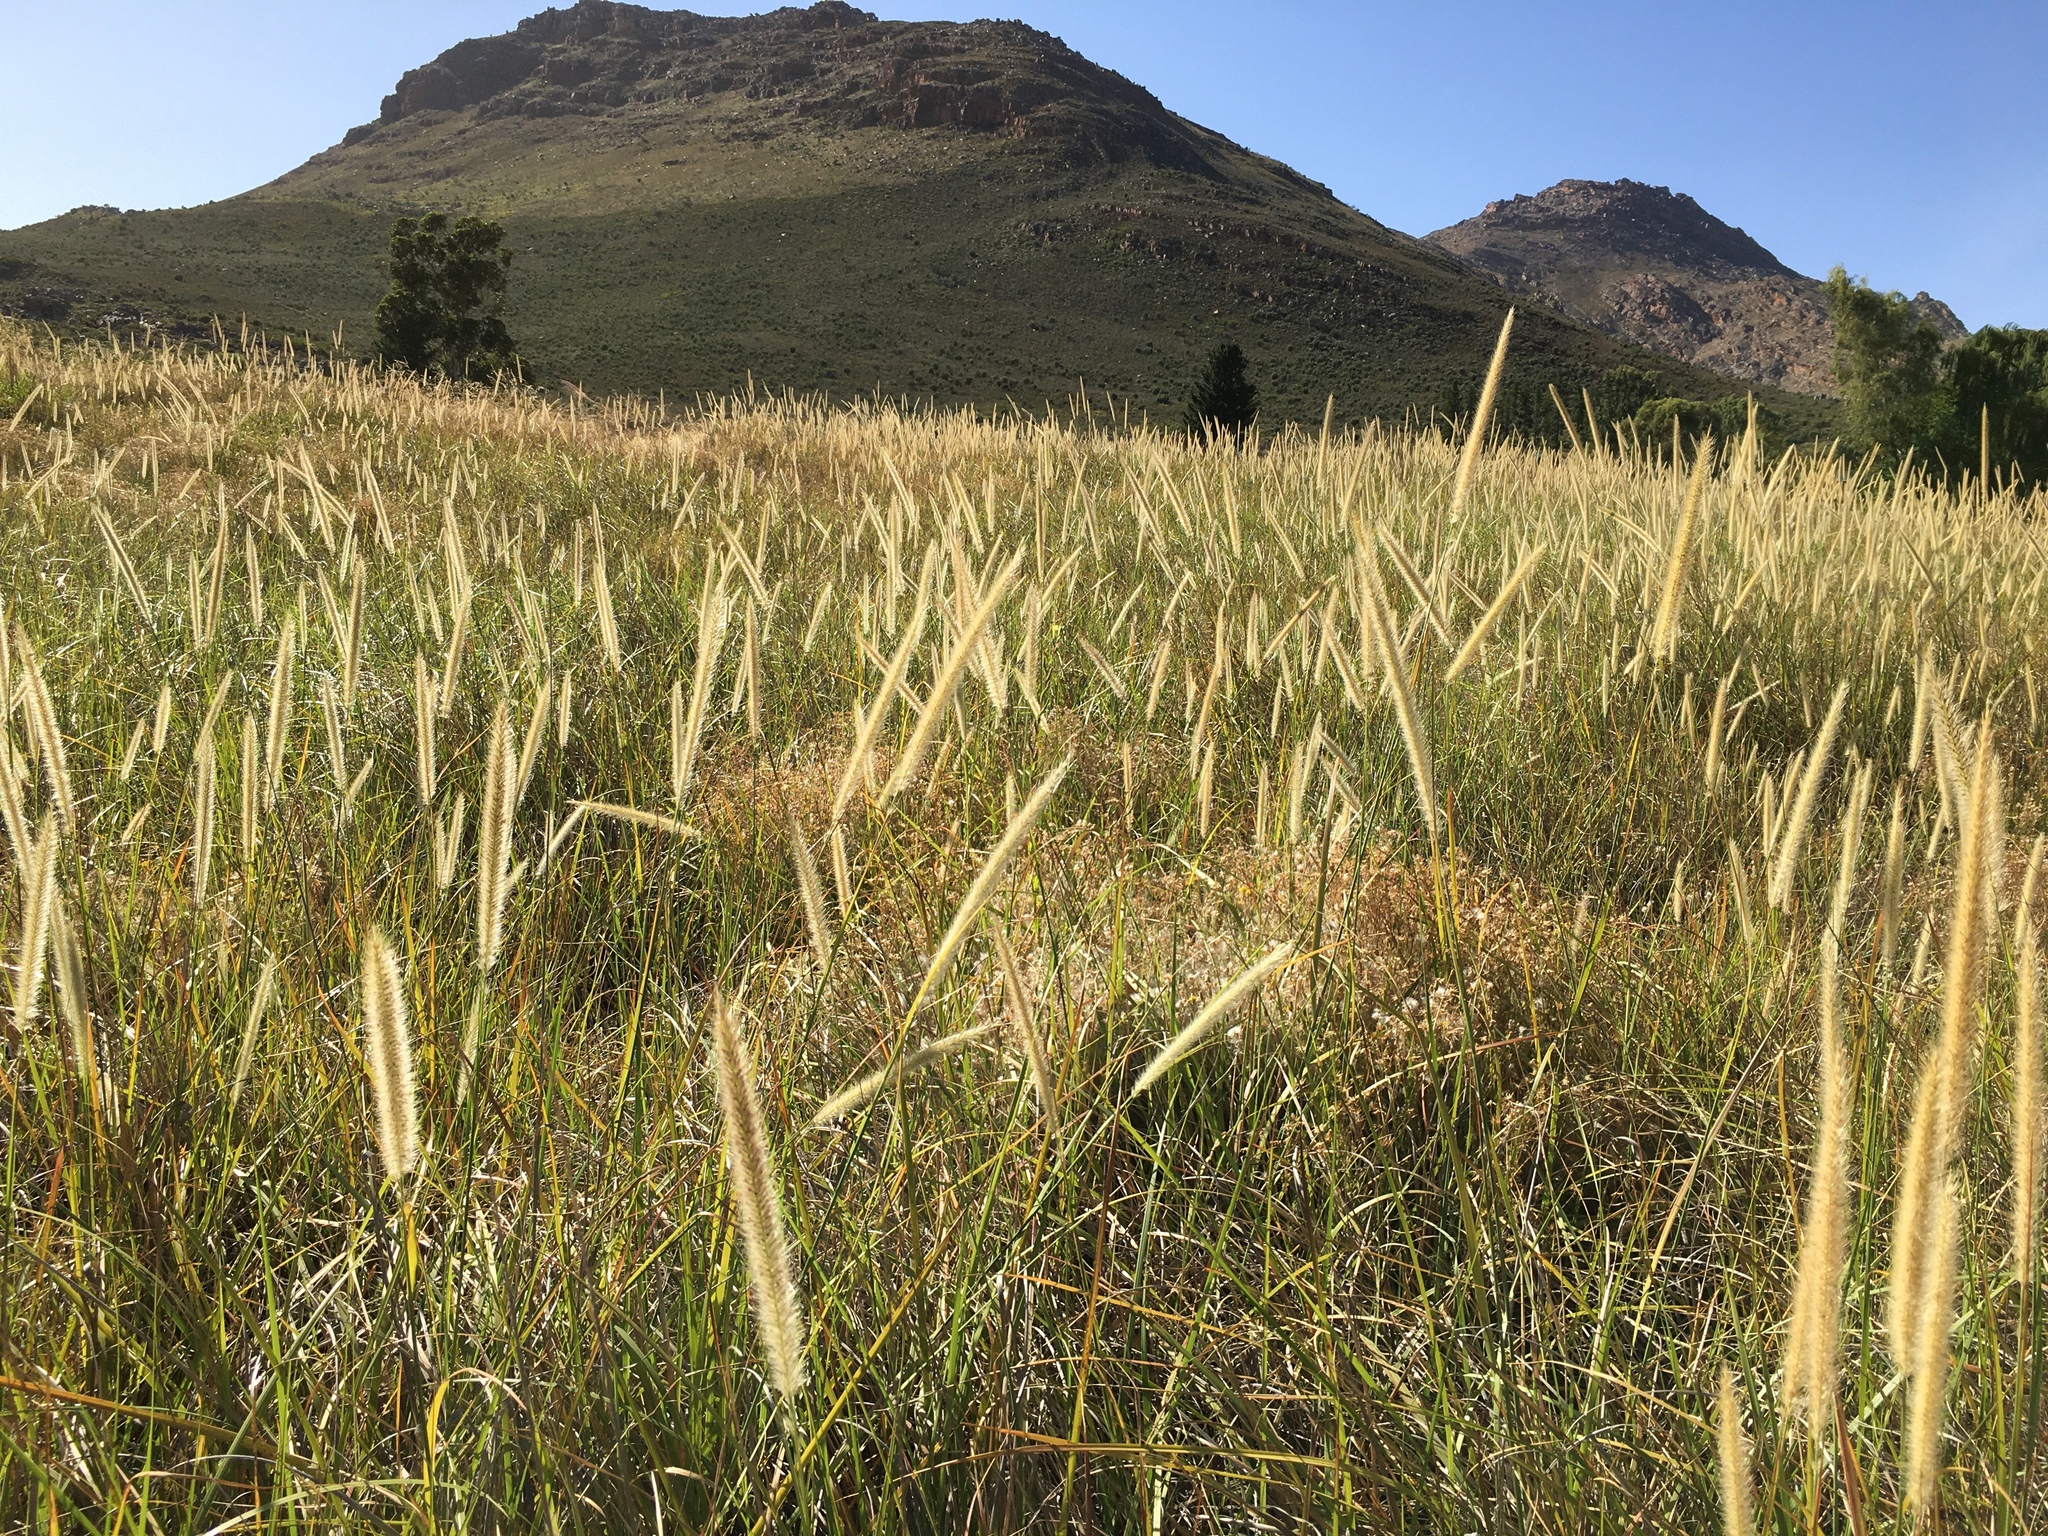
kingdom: Plantae
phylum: Tracheophyta
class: Liliopsida
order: Poales
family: Poaceae
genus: Cenchrus
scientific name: Cenchrus caudatus
